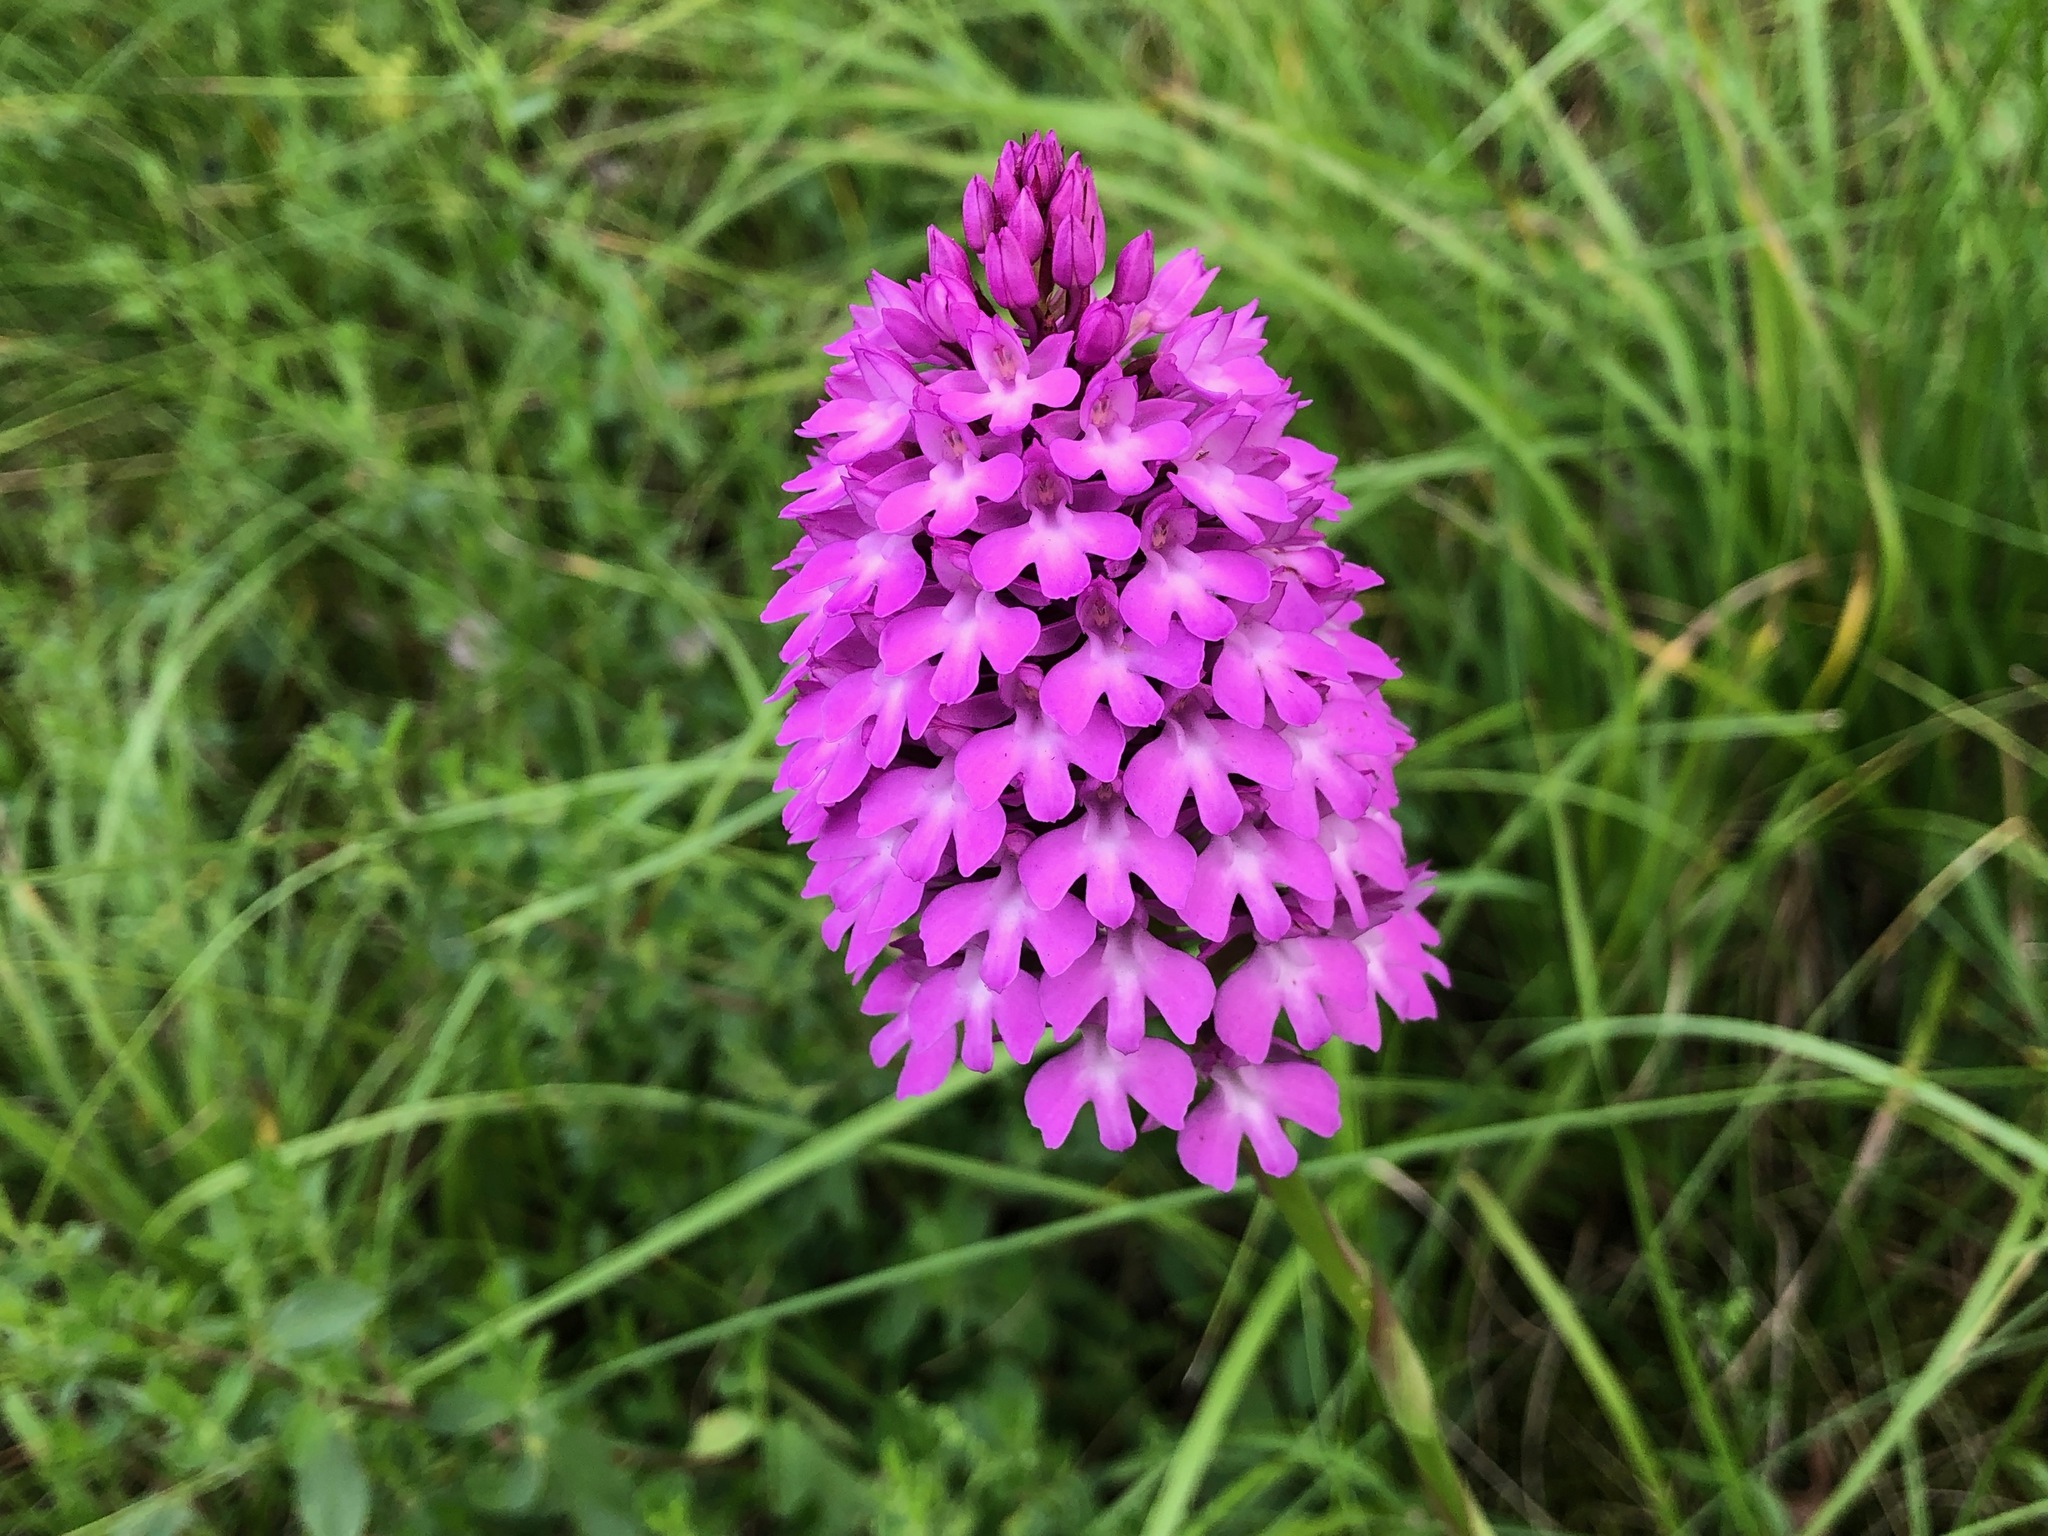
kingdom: Plantae
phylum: Tracheophyta
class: Liliopsida
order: Asparagales
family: Orchidaceae
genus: Anacamptis
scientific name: Anacamptis pyramidalis
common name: Pyramidal orchid
